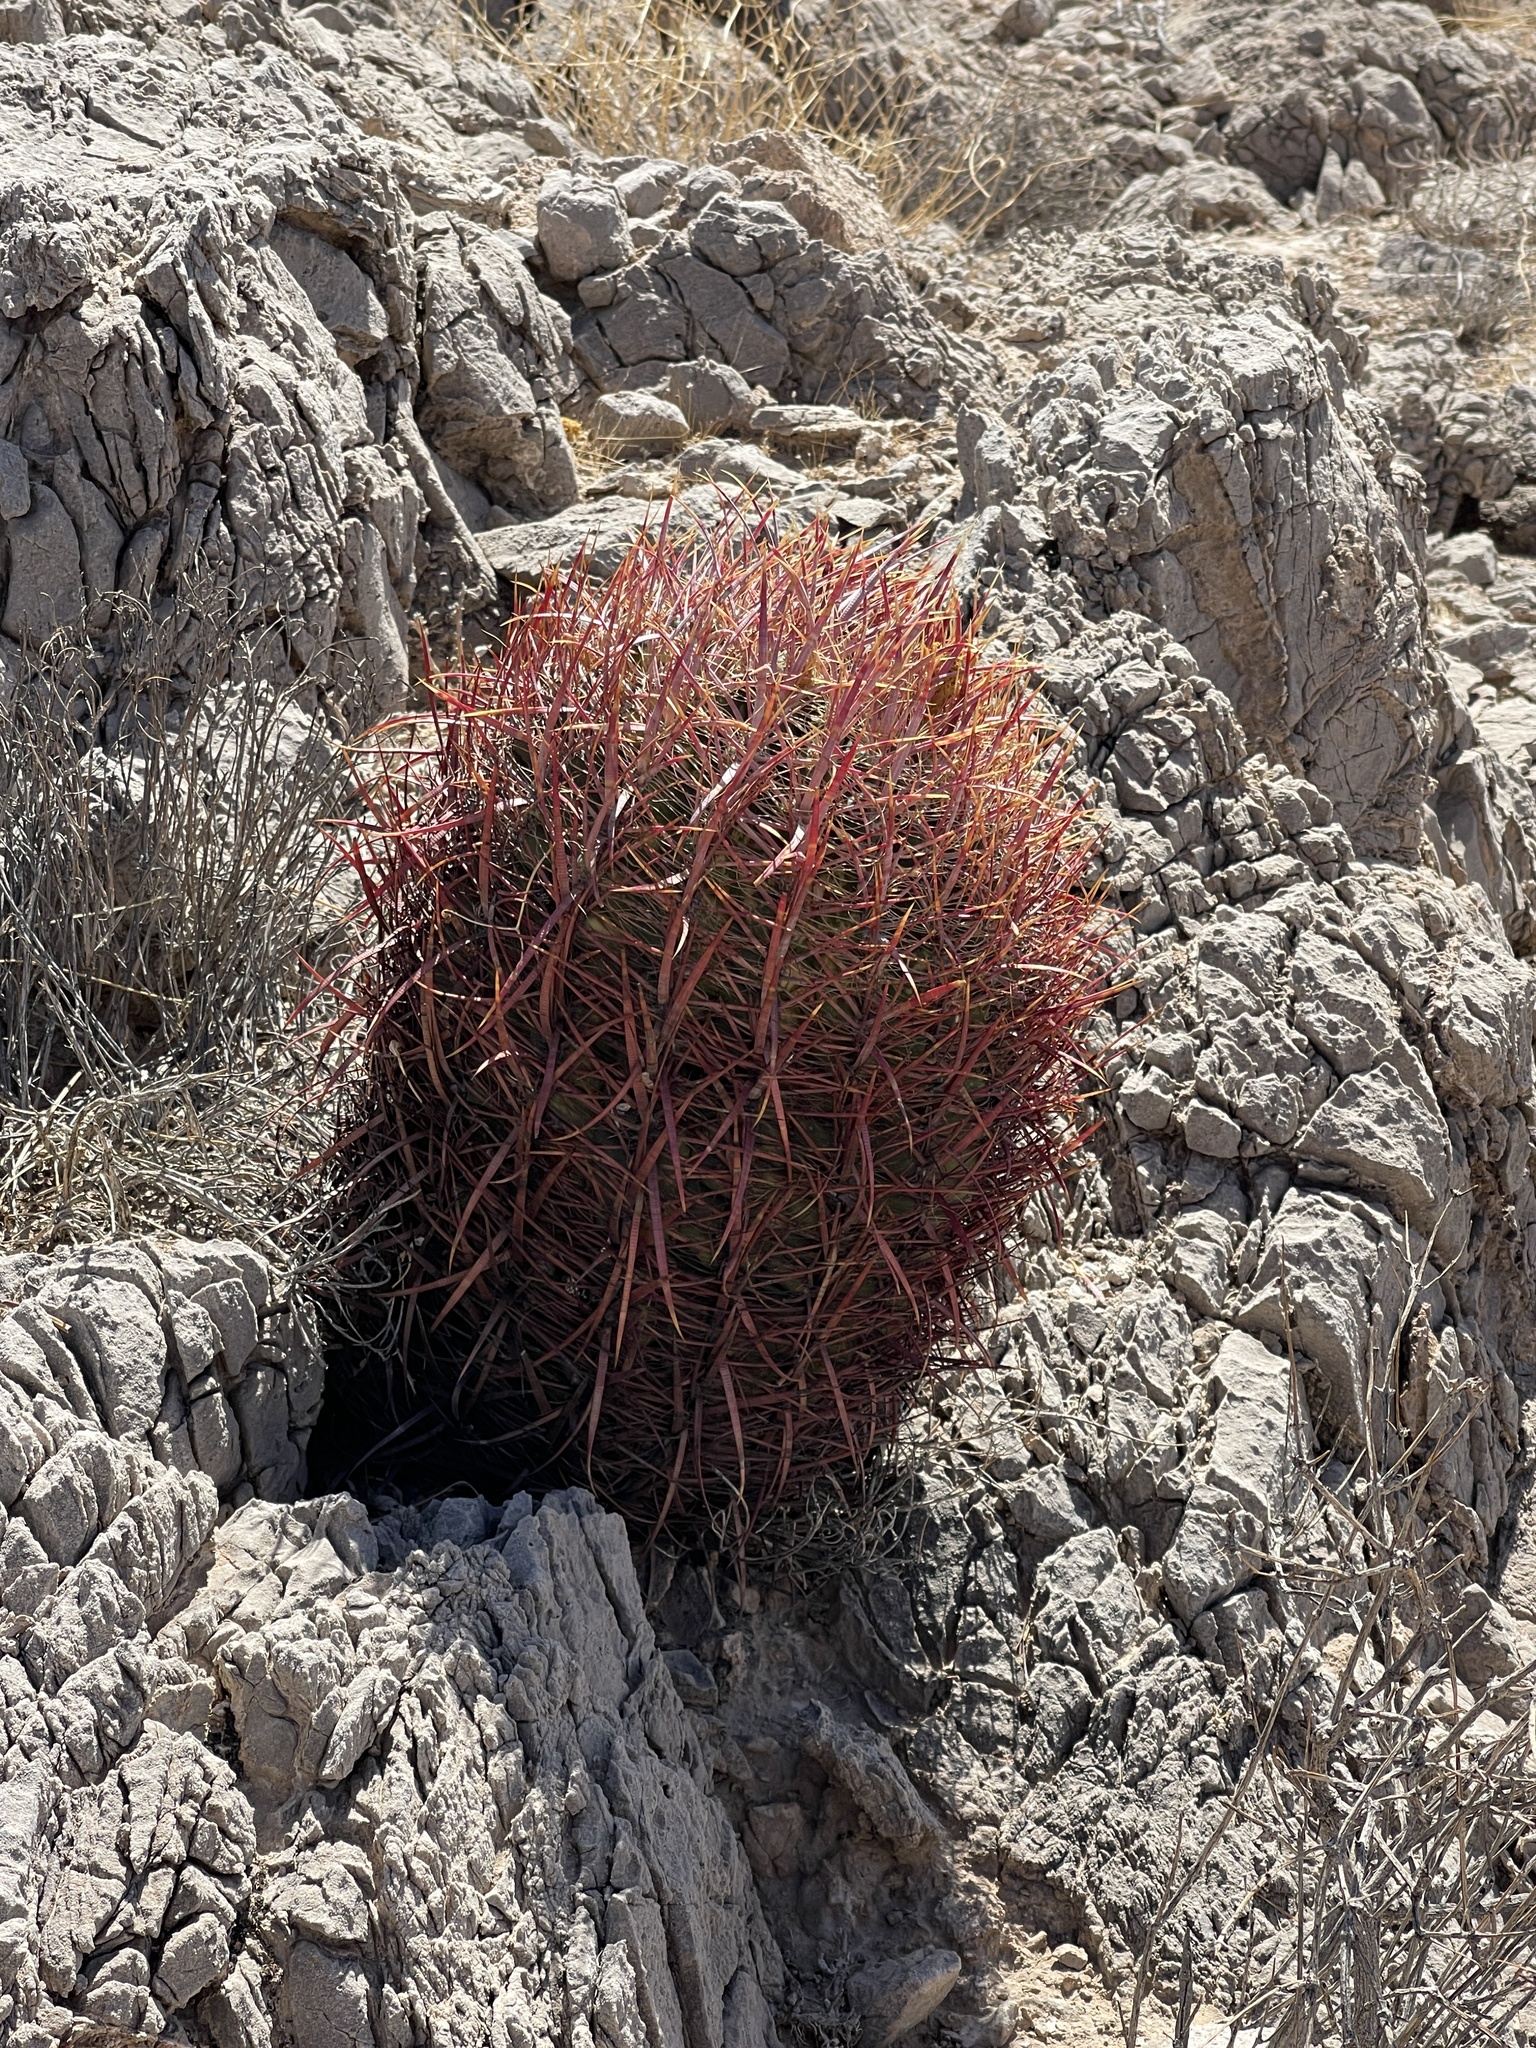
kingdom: Plantae
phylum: Tracheophyta
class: Magnoliopsida
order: Caryophyllales
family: Cactaceae
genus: Ferocactus
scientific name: Ferocactus cylindraceus
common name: California barrel cactus
